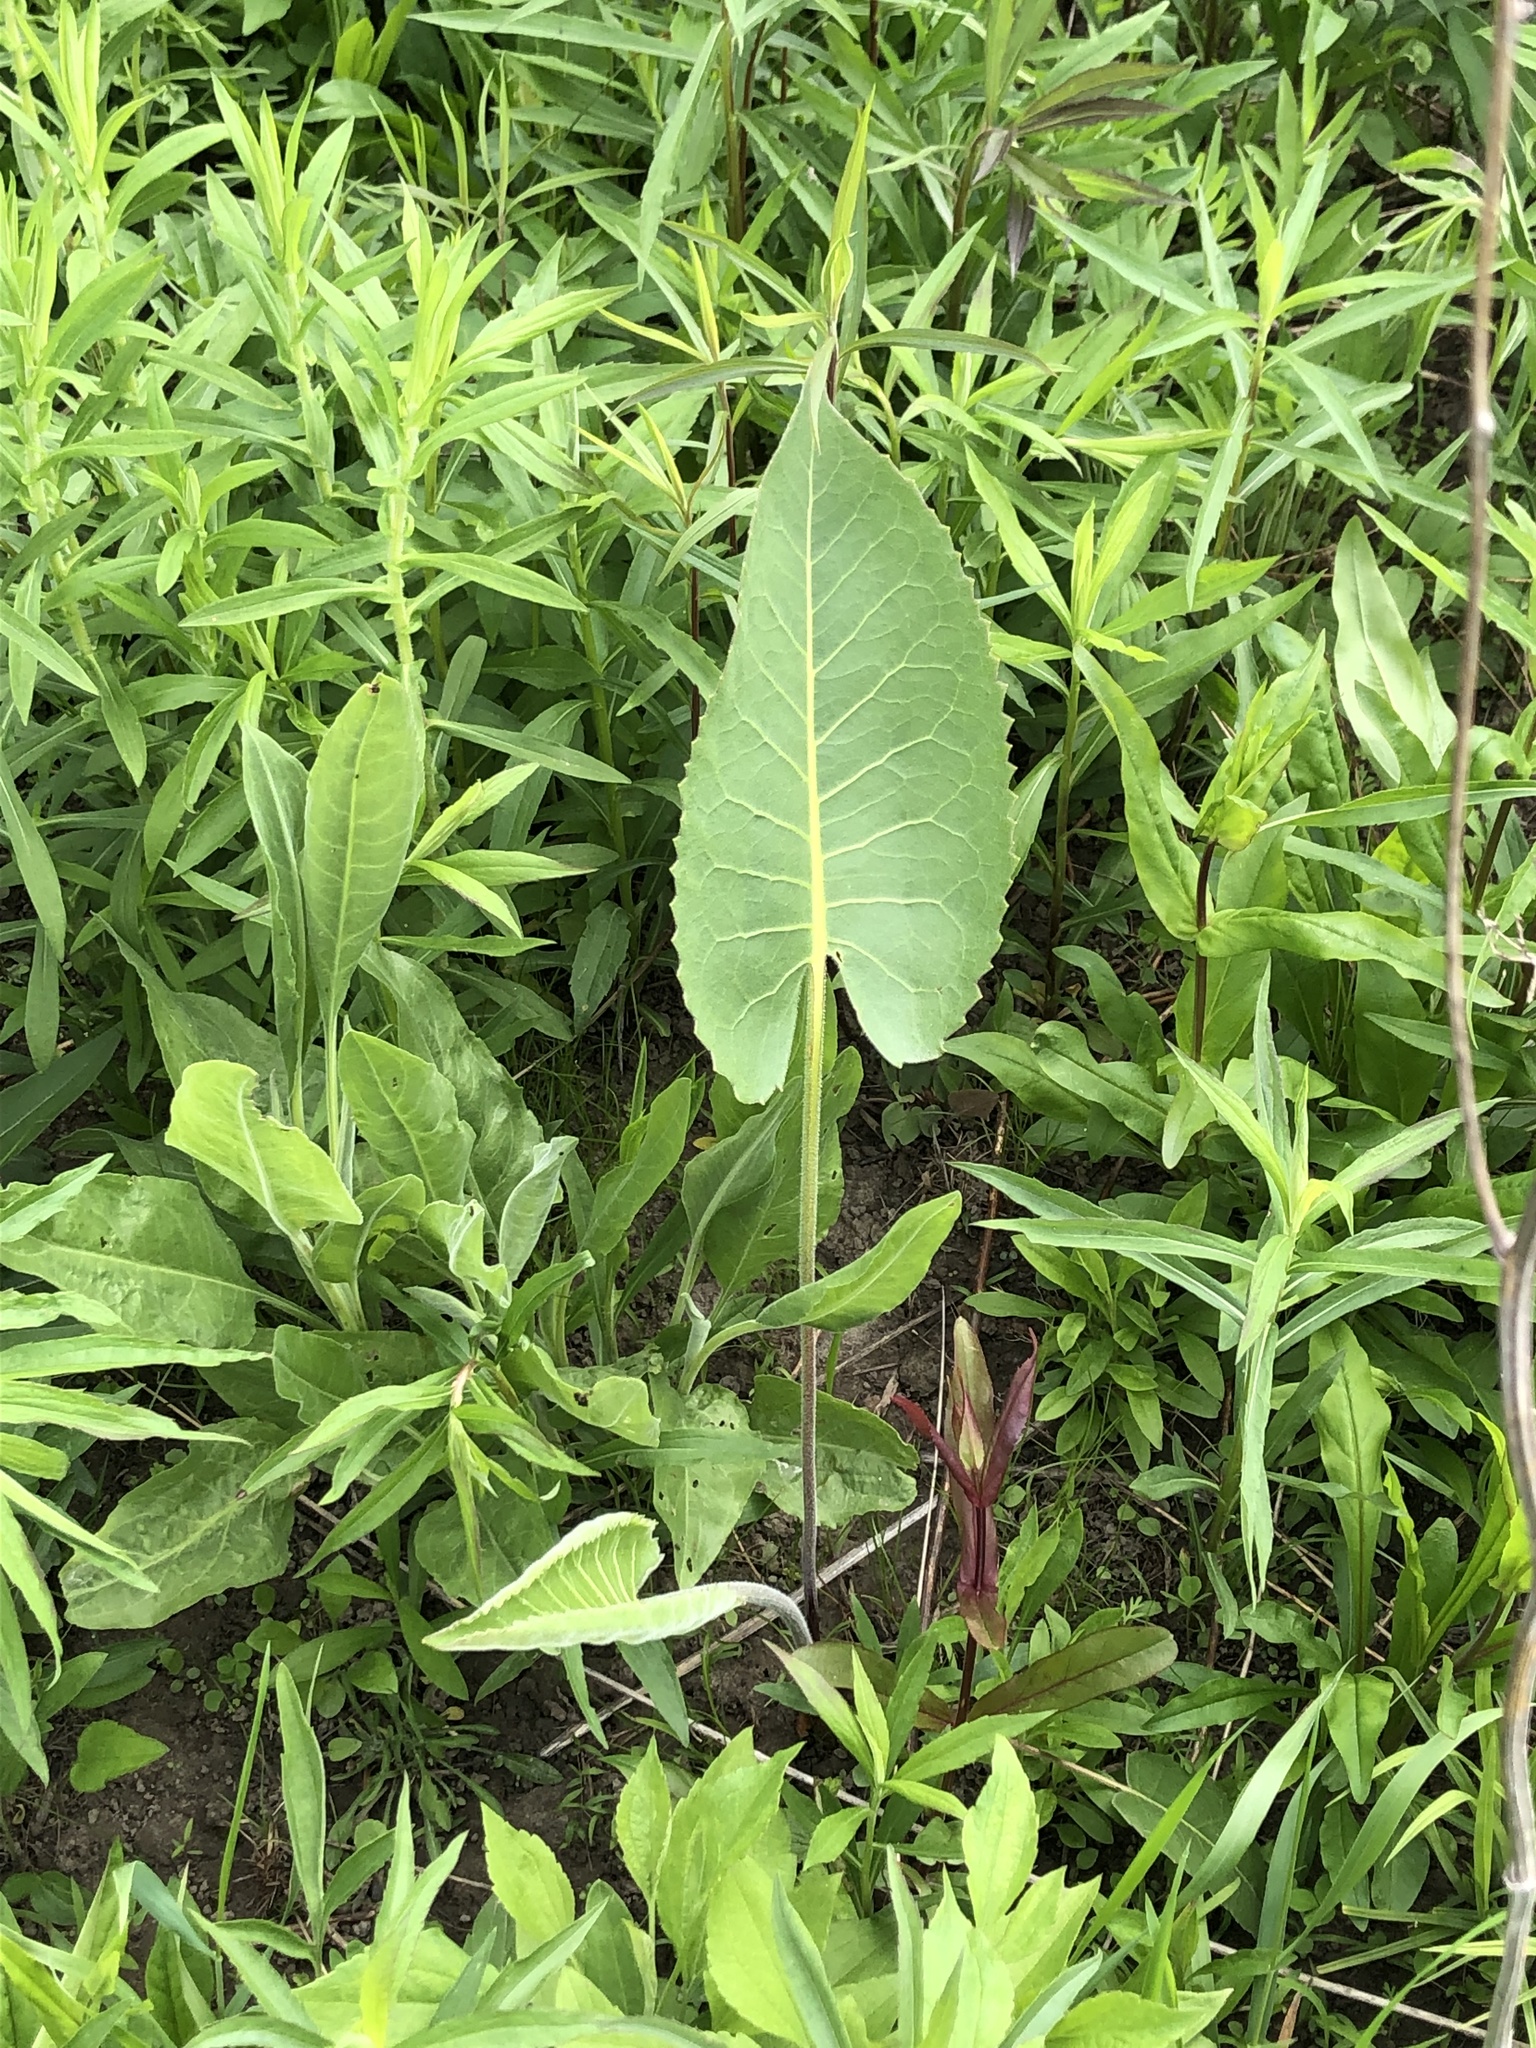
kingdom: Plantae
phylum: Tracheophyta
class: Magnoliopsida
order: Asterales
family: Asteraceae
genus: Silphium
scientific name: Silphium terebinthinaceum
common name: Basal-leaf rosinweed
